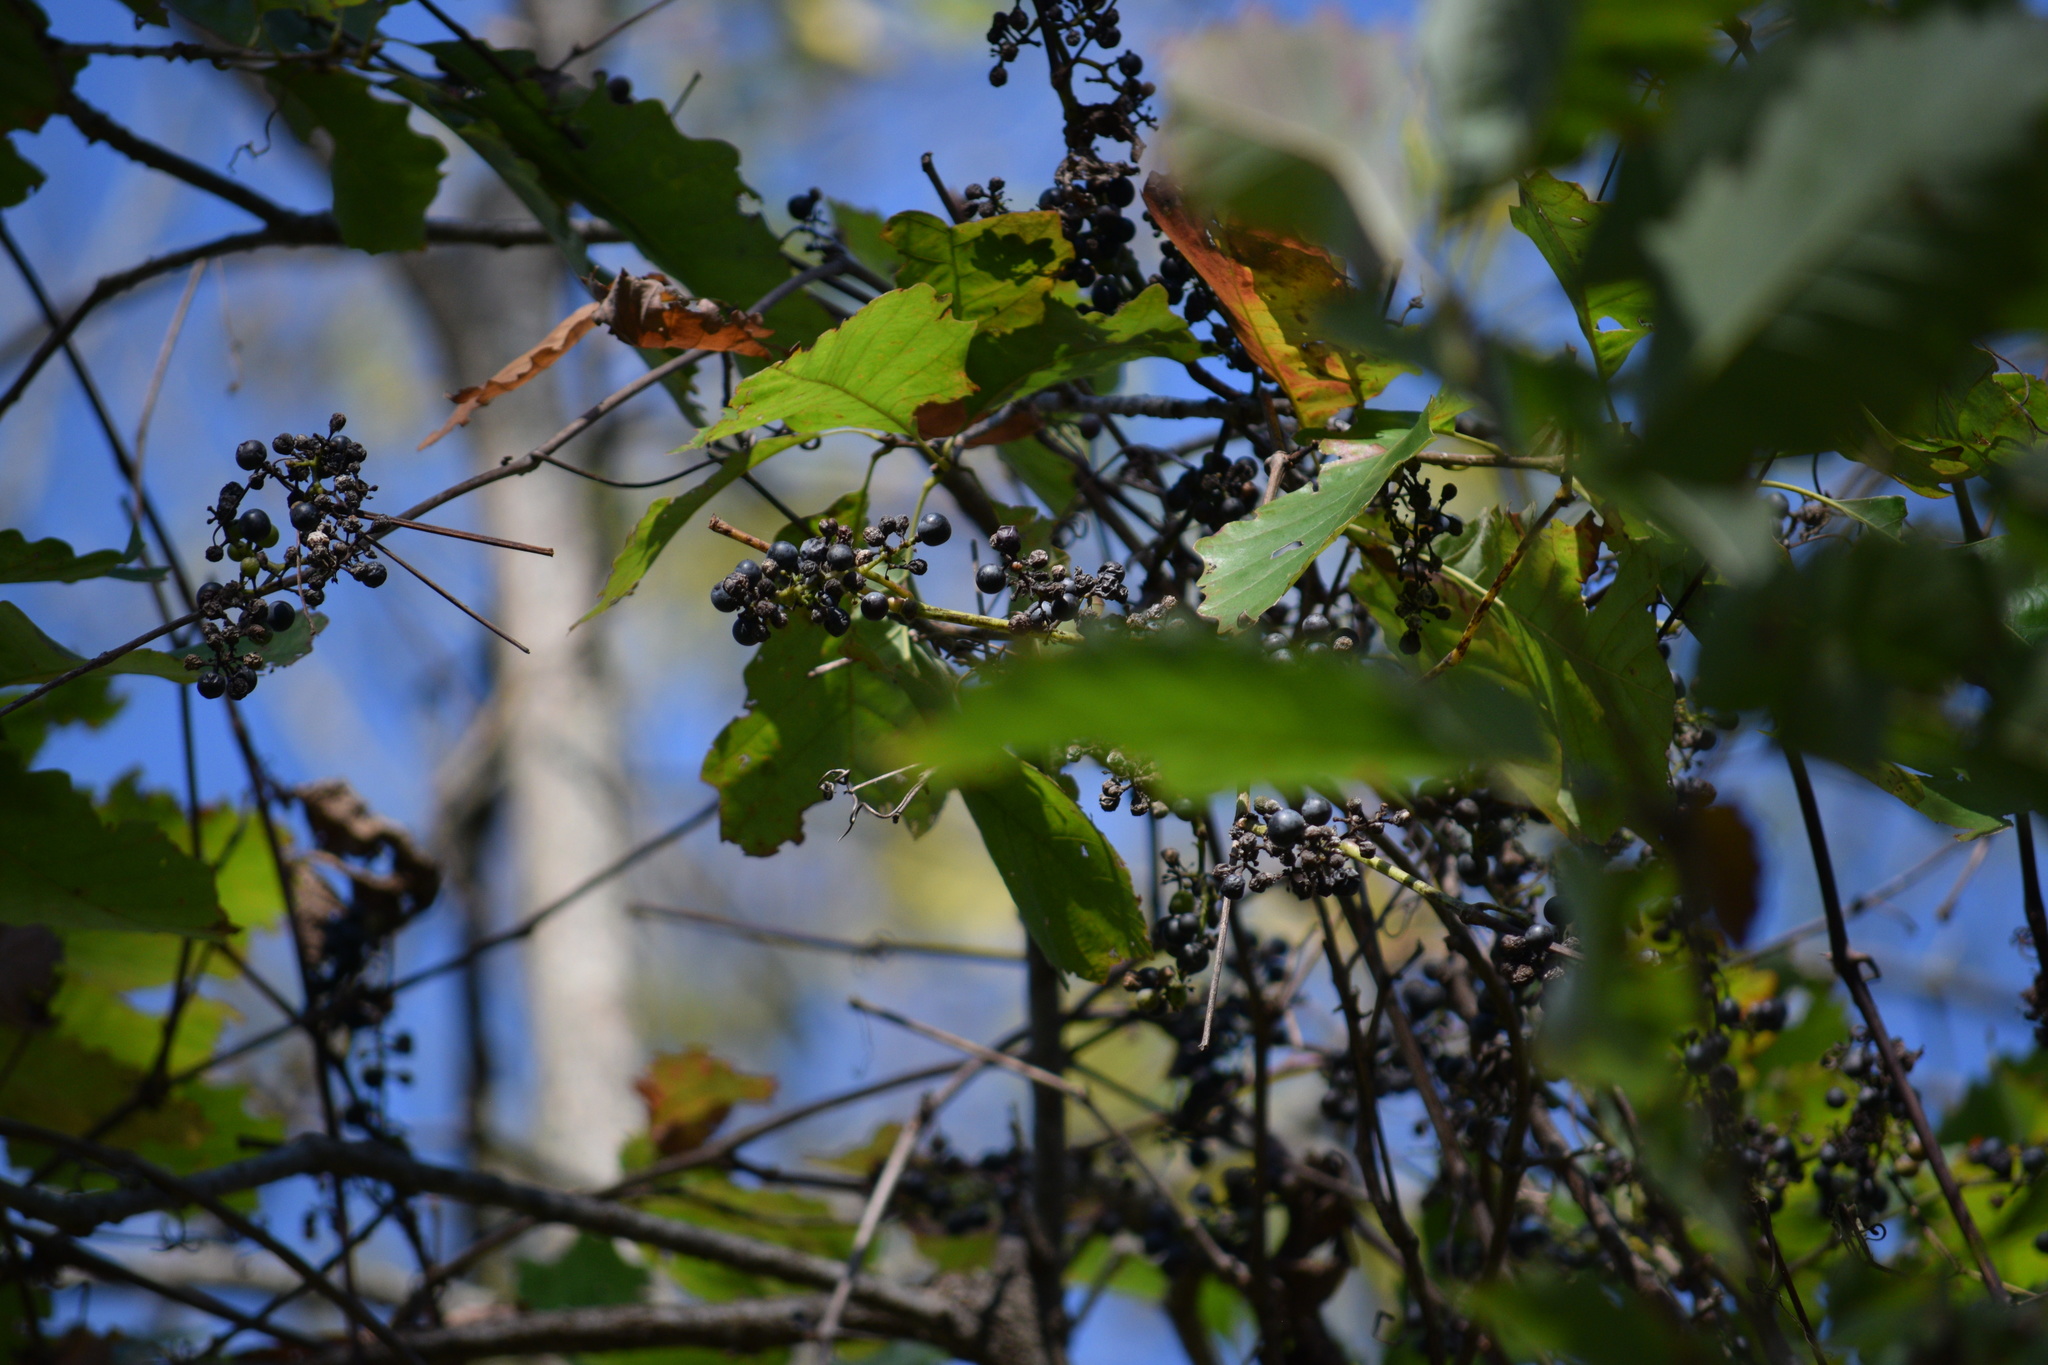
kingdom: Plantae
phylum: Tracheophyta
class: Magnoliopsida
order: Vitales
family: Vitaceae
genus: Vitis
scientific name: Vitis riparia
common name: Frost grape
